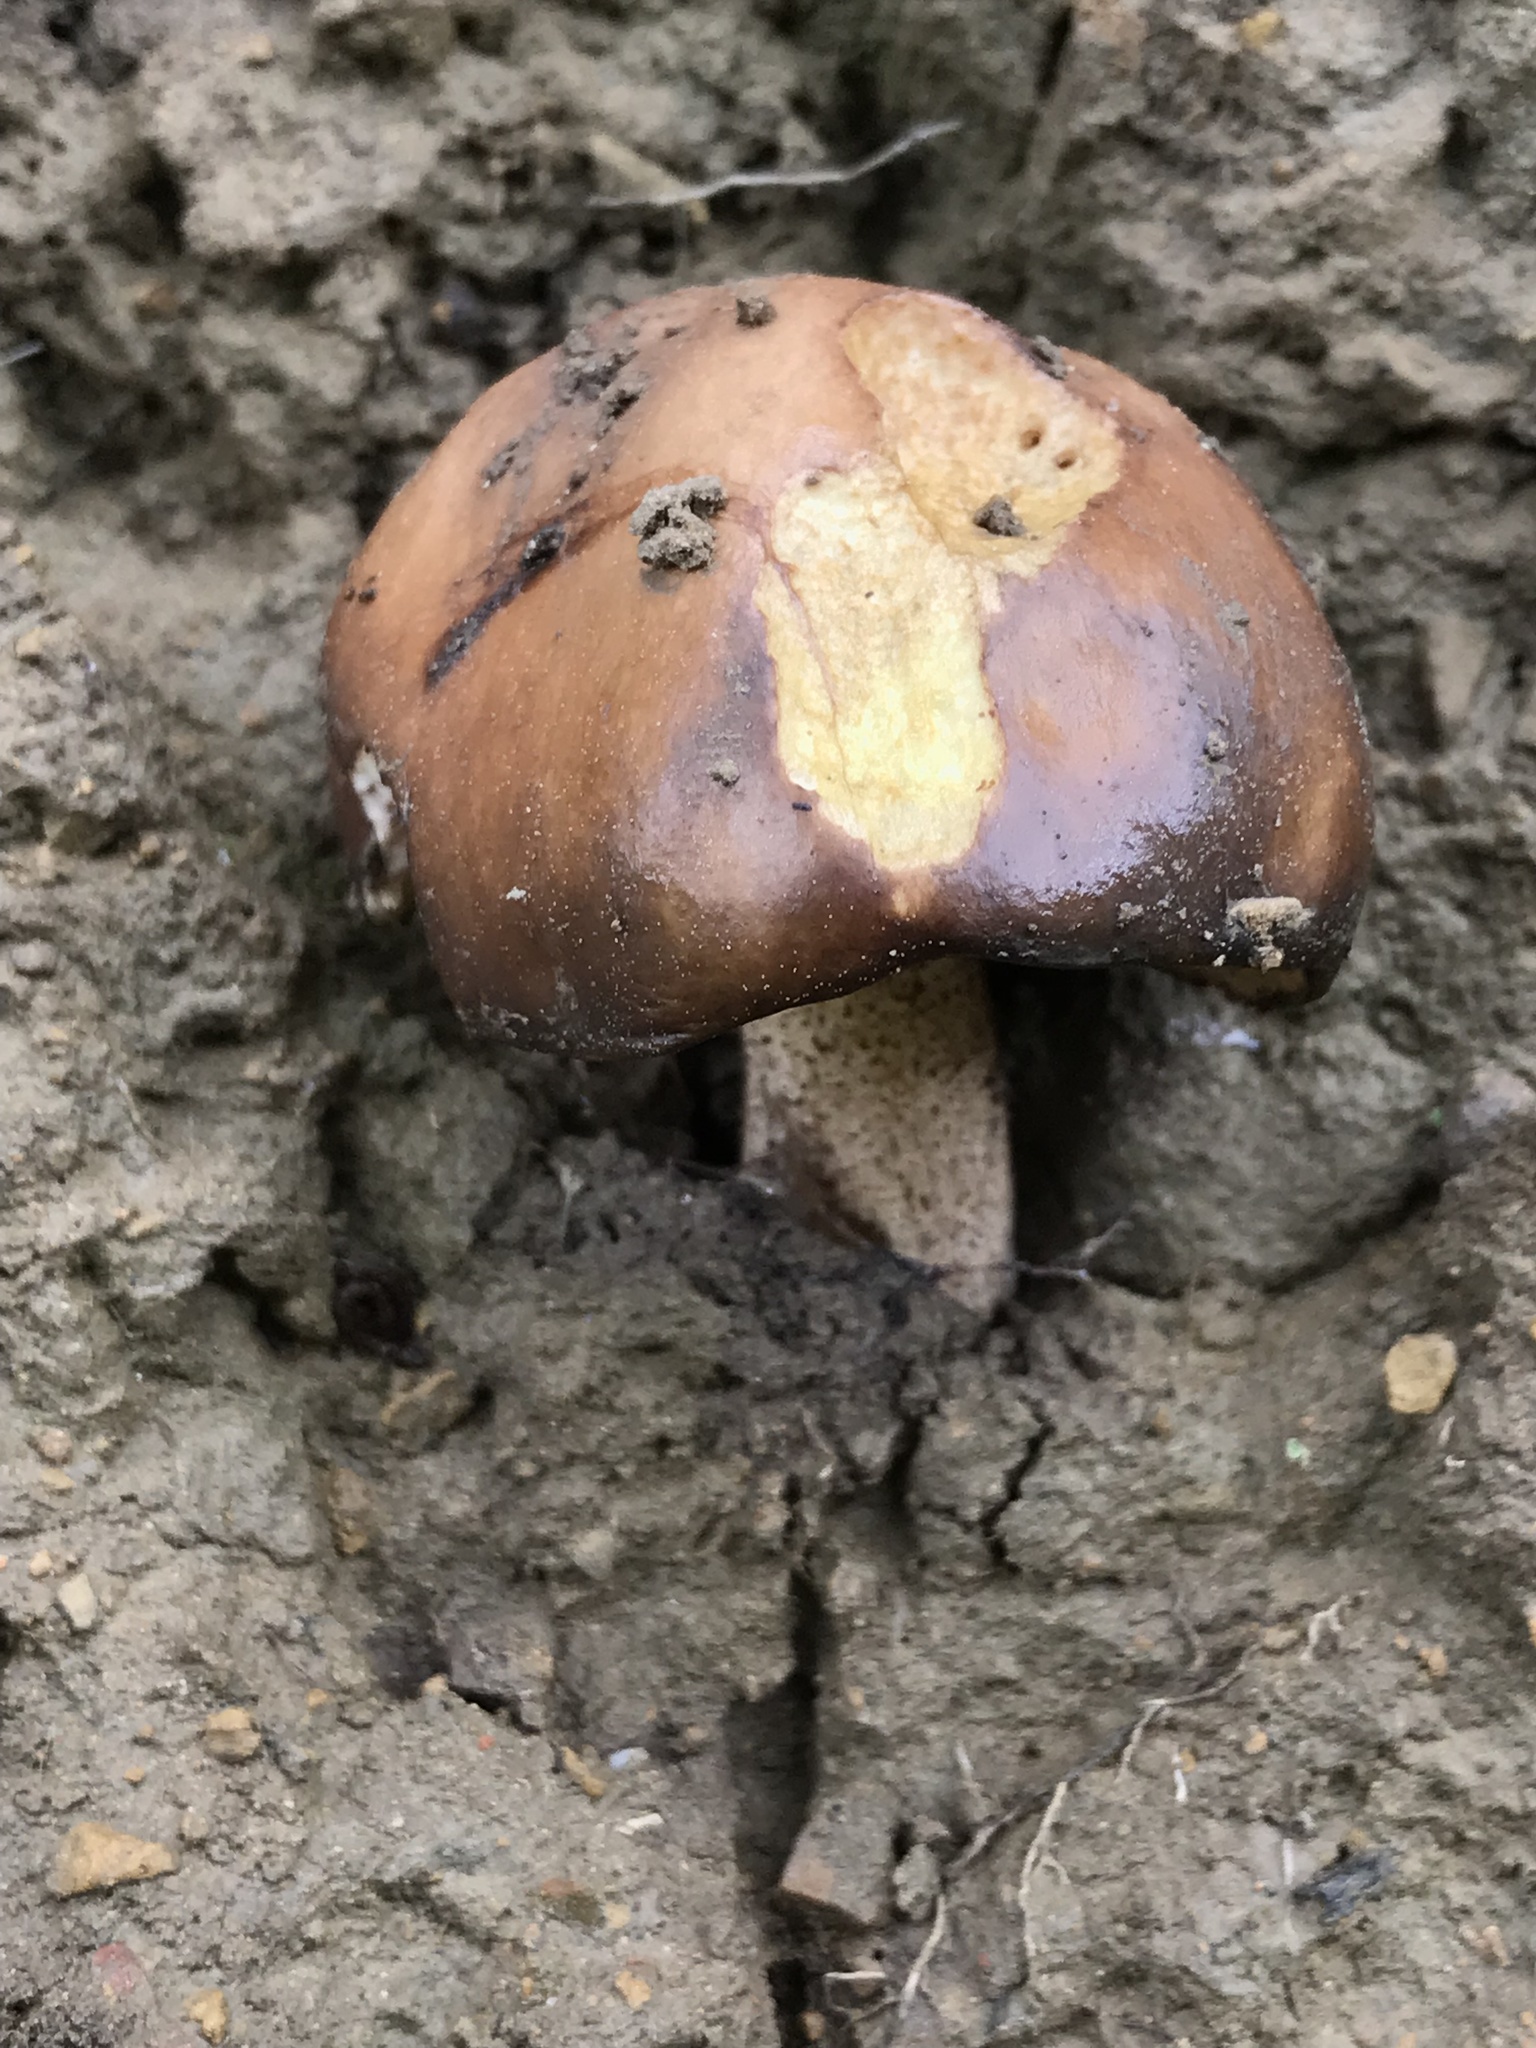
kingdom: Fungi
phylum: Basidiomycota
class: Agaricomycetes
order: Boletales
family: Suillaceae
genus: Suillus
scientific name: Suillus pungens
